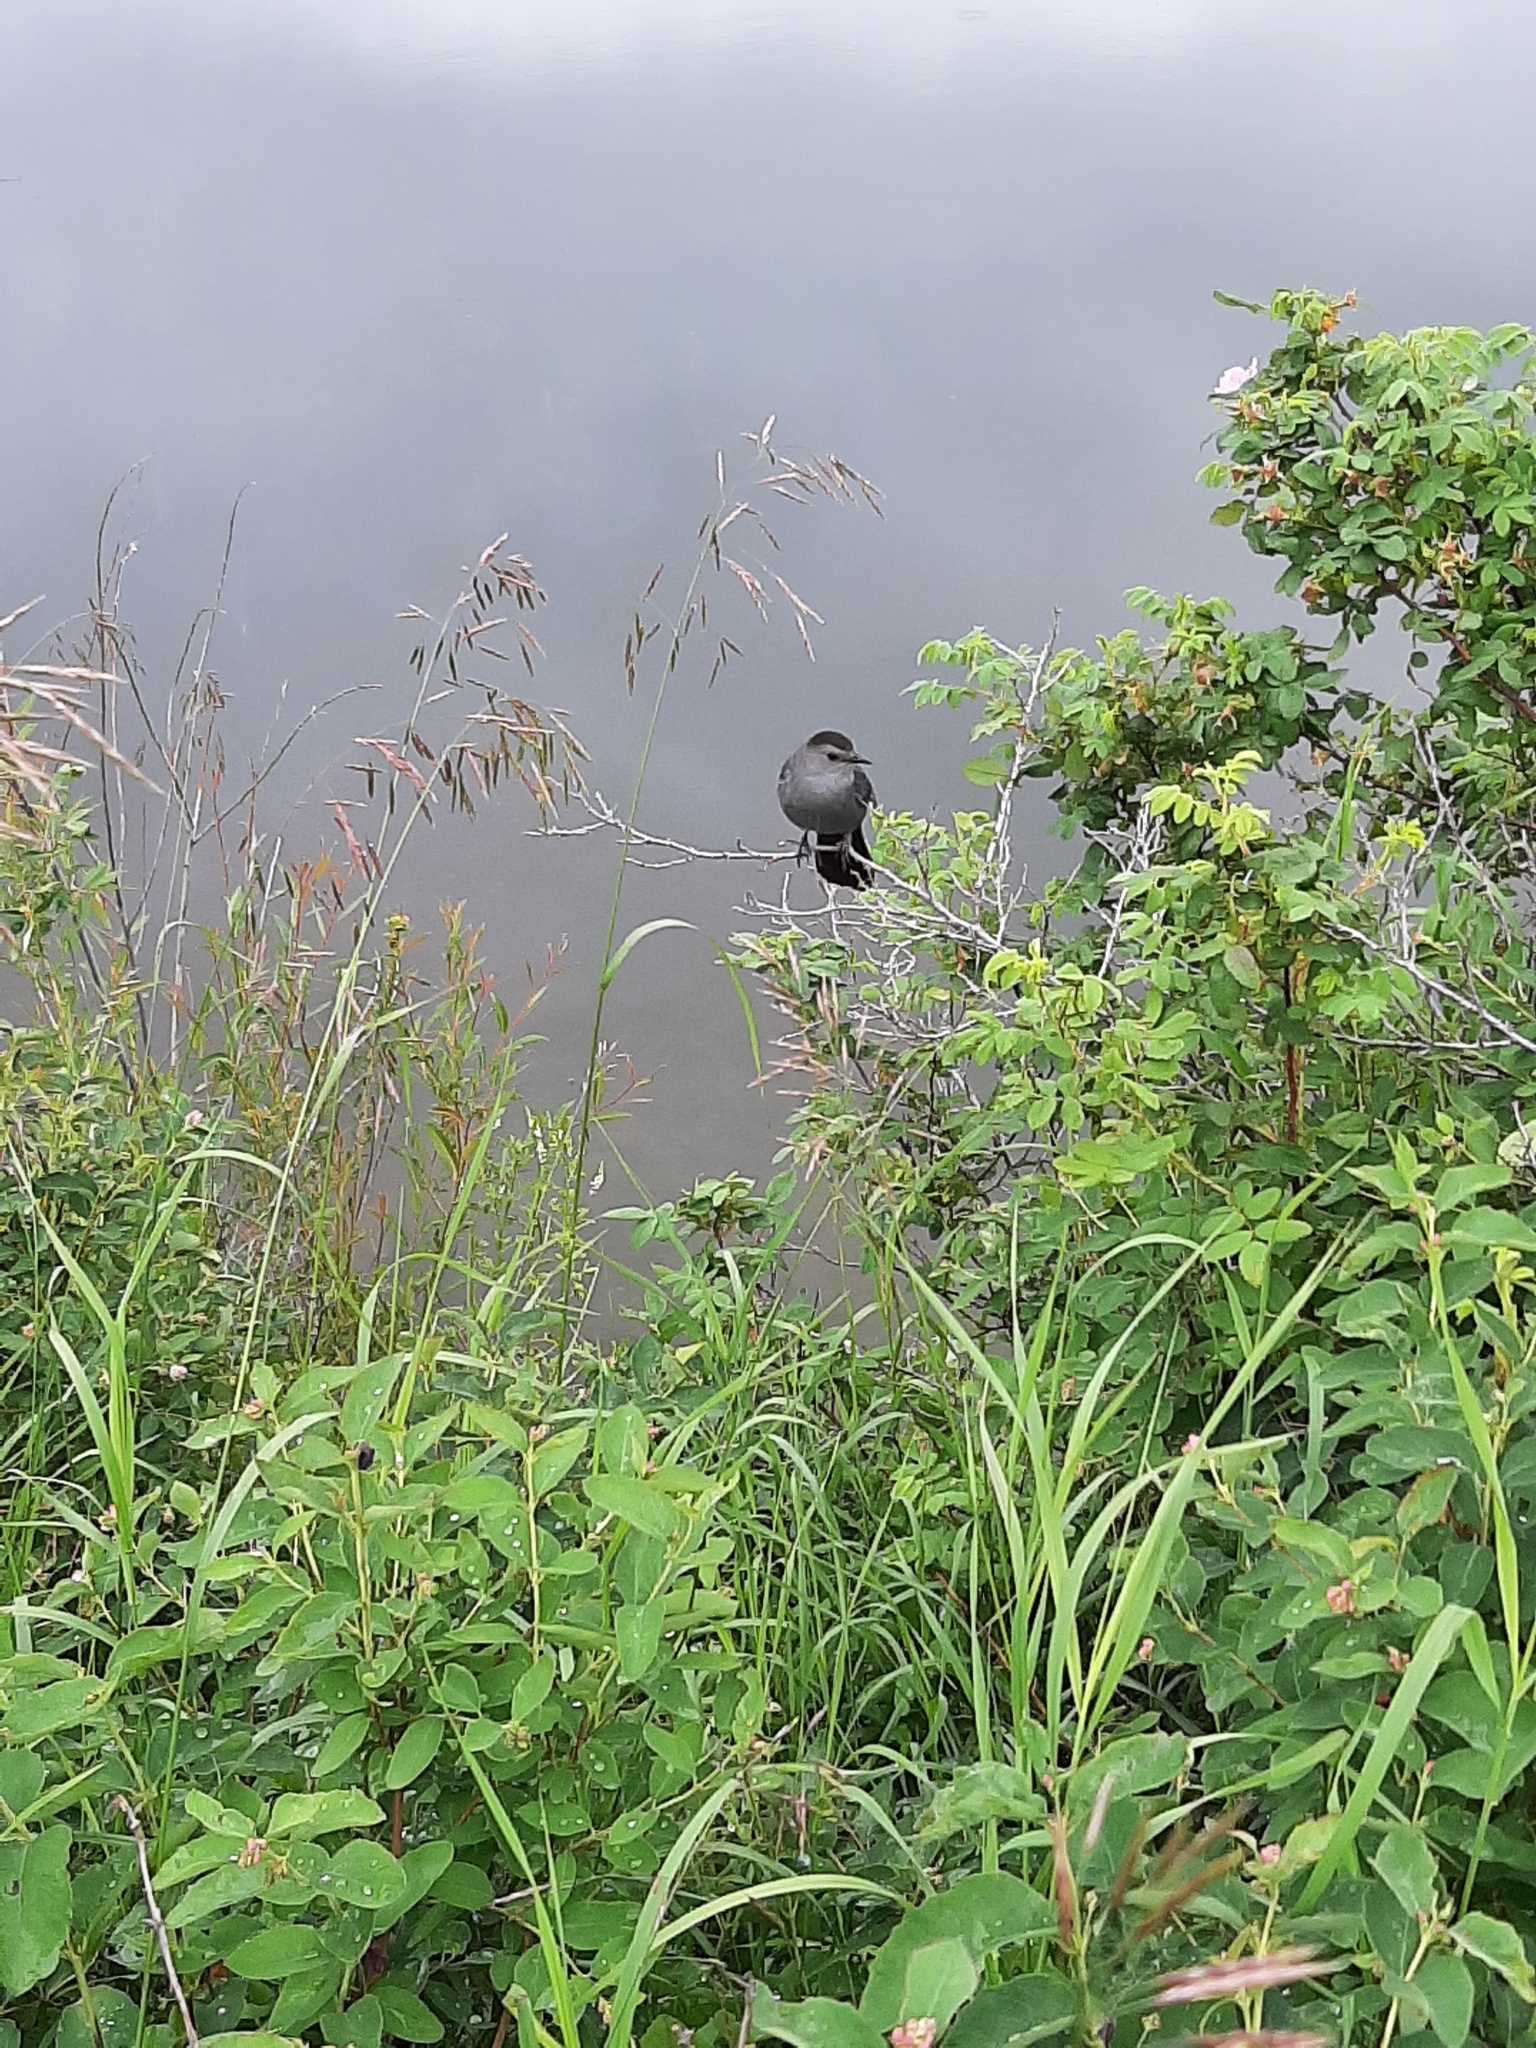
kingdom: Animalia
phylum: Chordata
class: Aves
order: Passeriformes
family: Mimidae
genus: Dumetella
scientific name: Dumetella carolinensis
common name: Gray catbird
